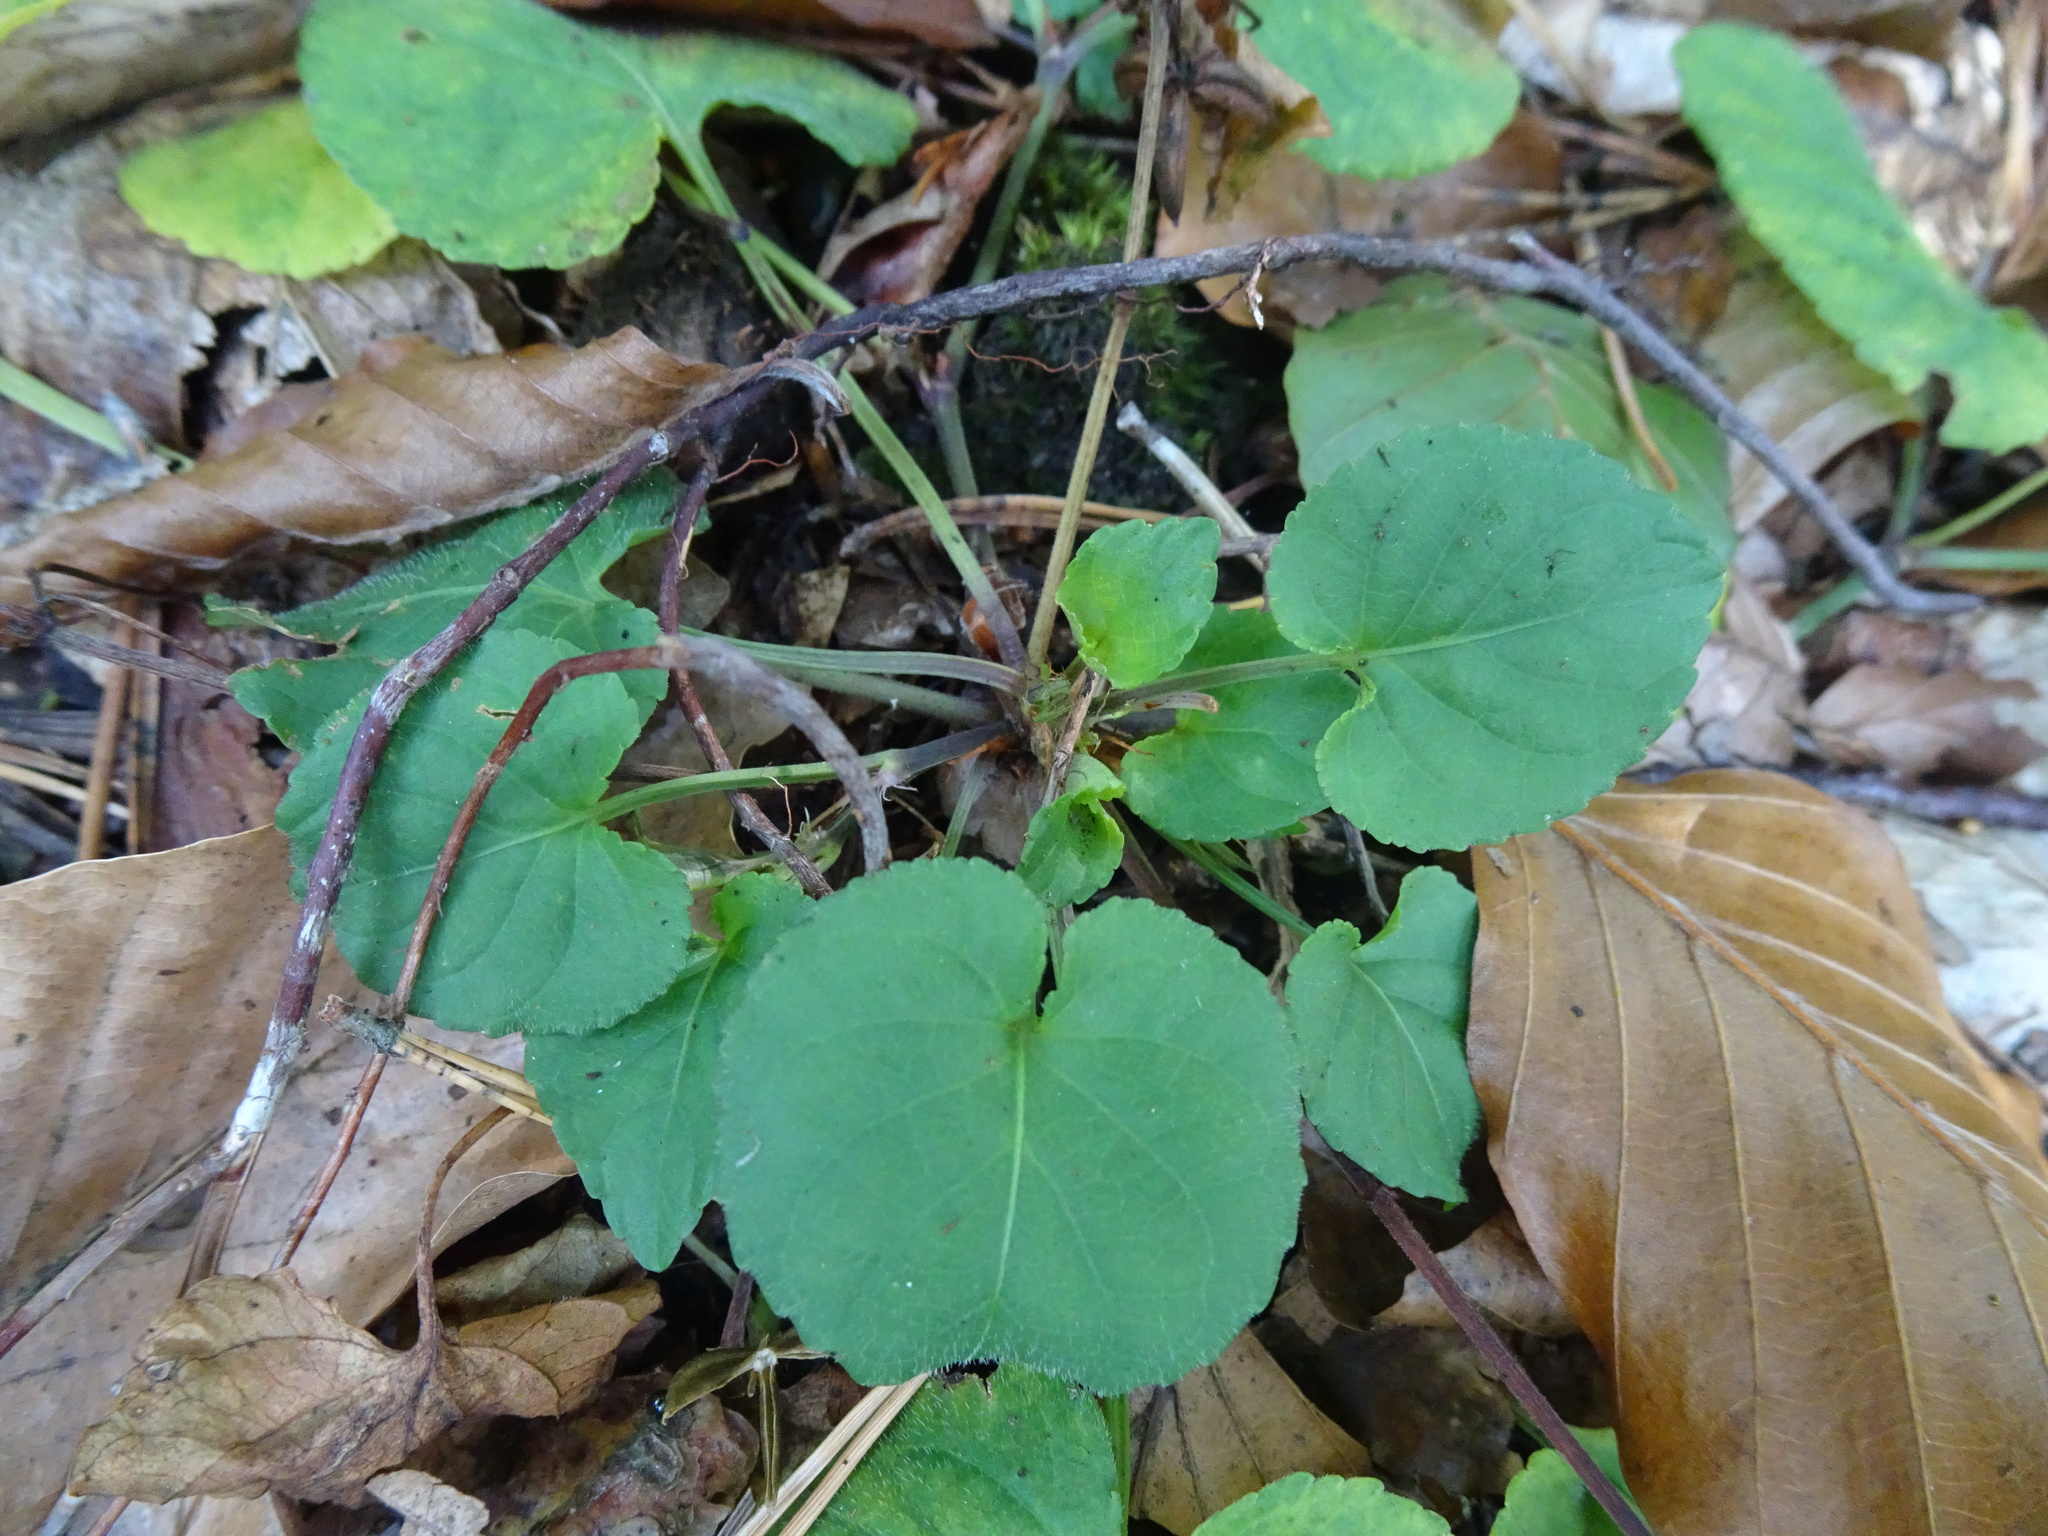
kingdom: Plantae
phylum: Tracheophyta
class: Magnoliopsida
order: Malpighiales
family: Violaceae
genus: Viola
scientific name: Viola odorata
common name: Sweet violet
